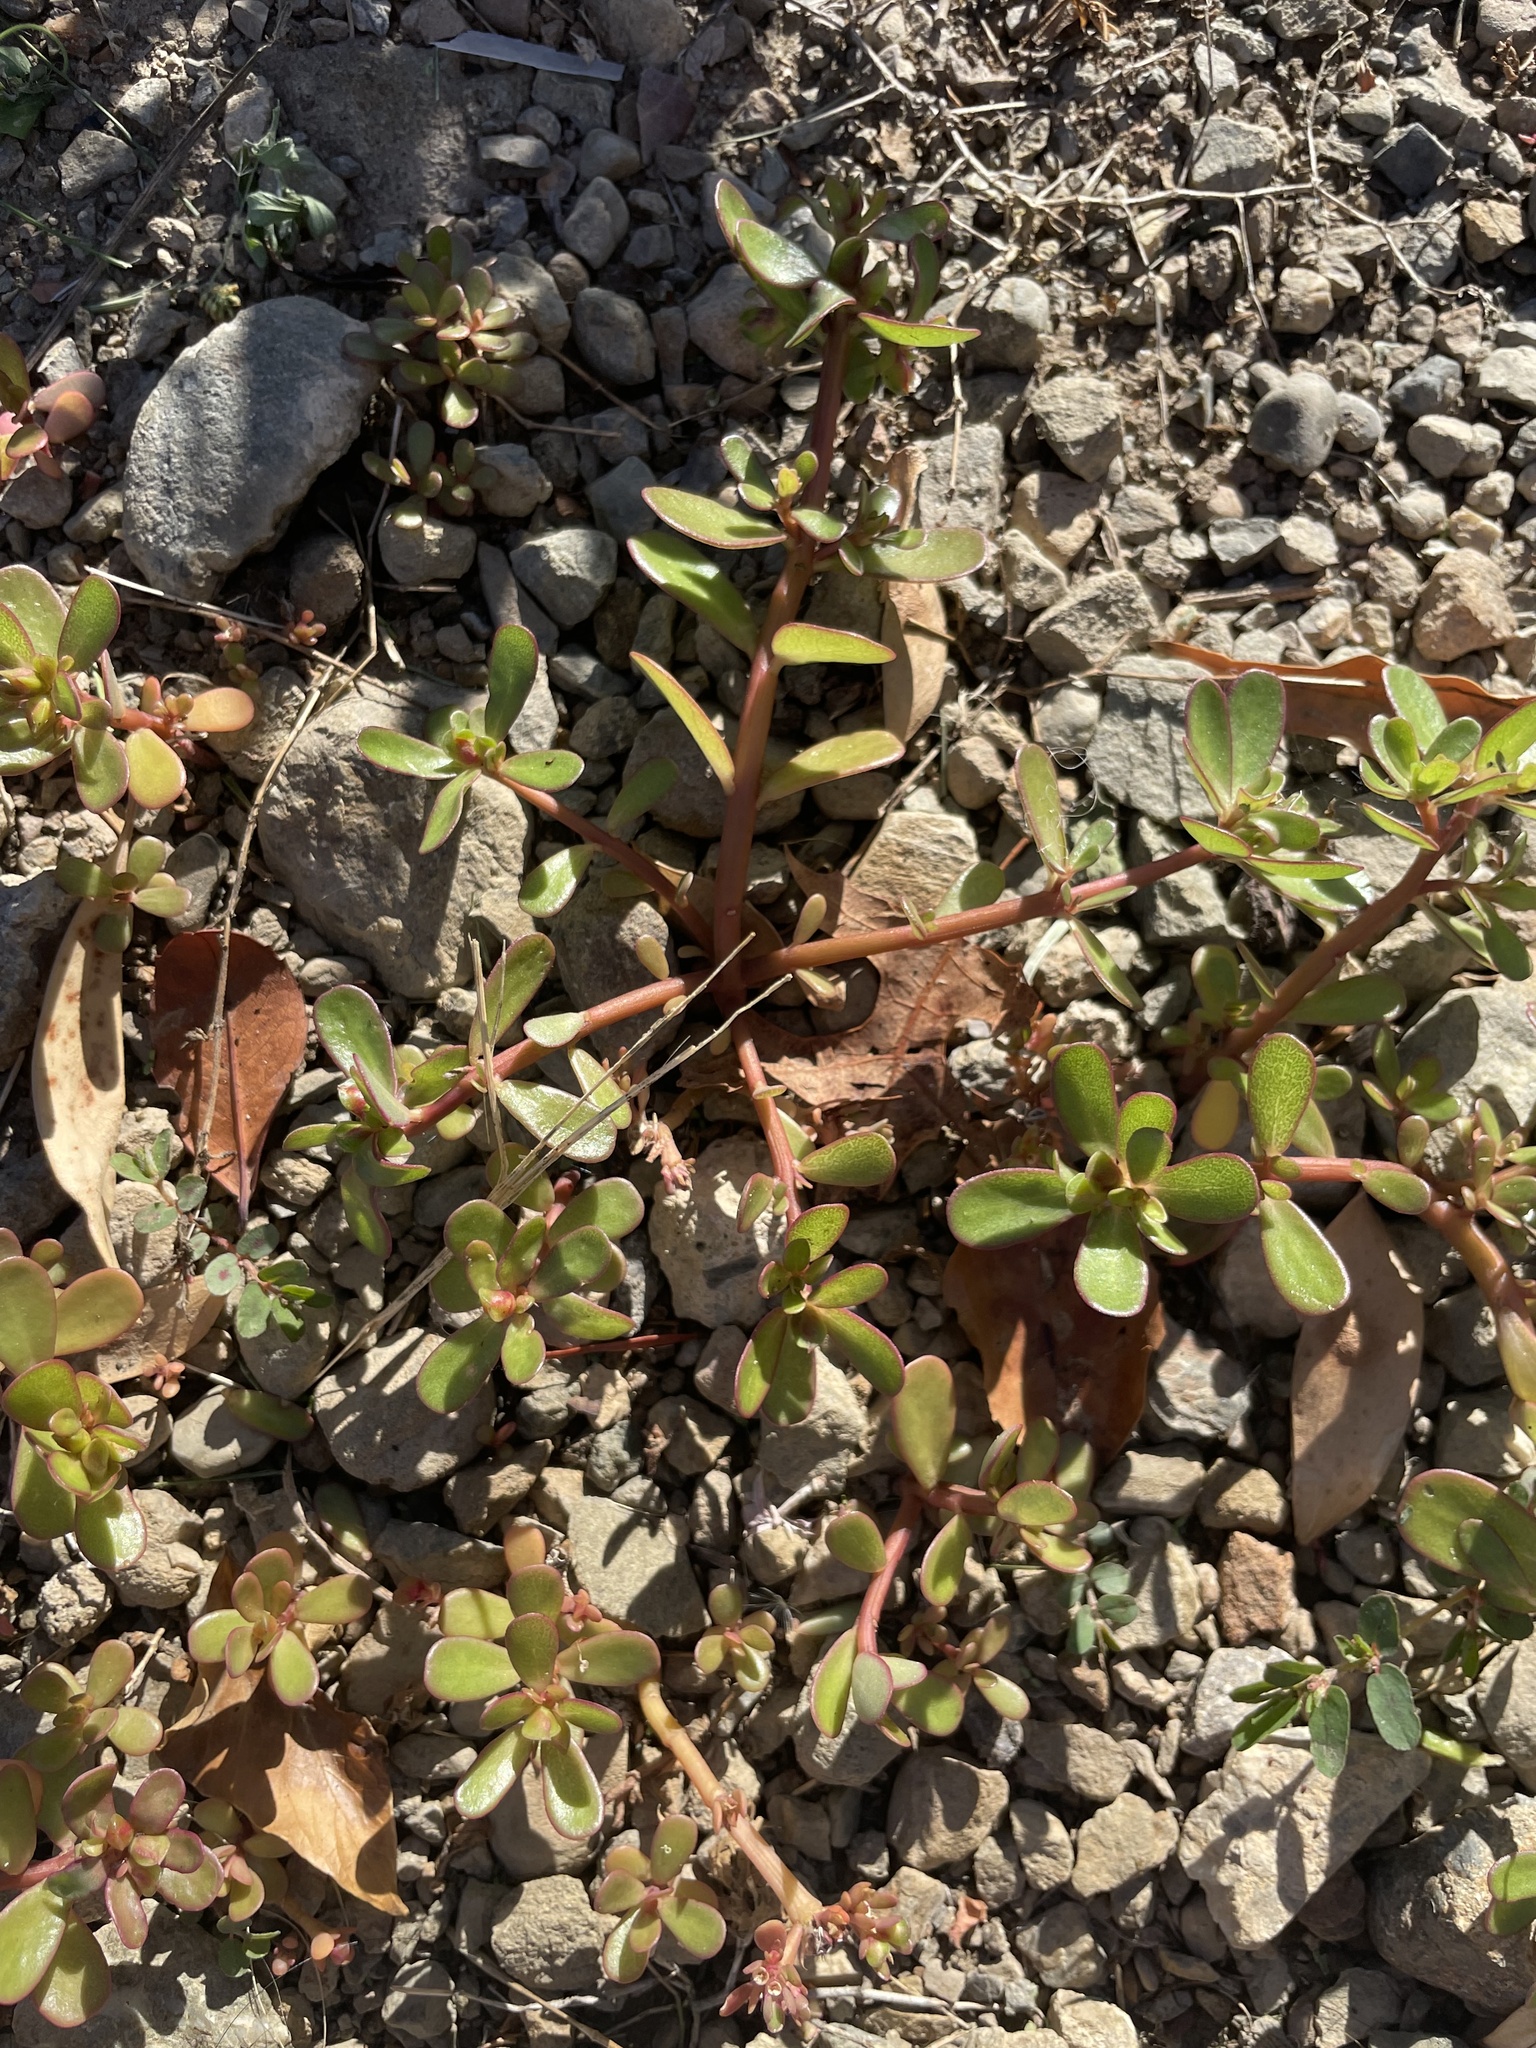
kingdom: Plantae
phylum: Tracheophyta
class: Magnoliopsida
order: Caryophyllales
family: Portulacaceae
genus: Portulaca
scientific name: Portulaca oleracea
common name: Common purslane
